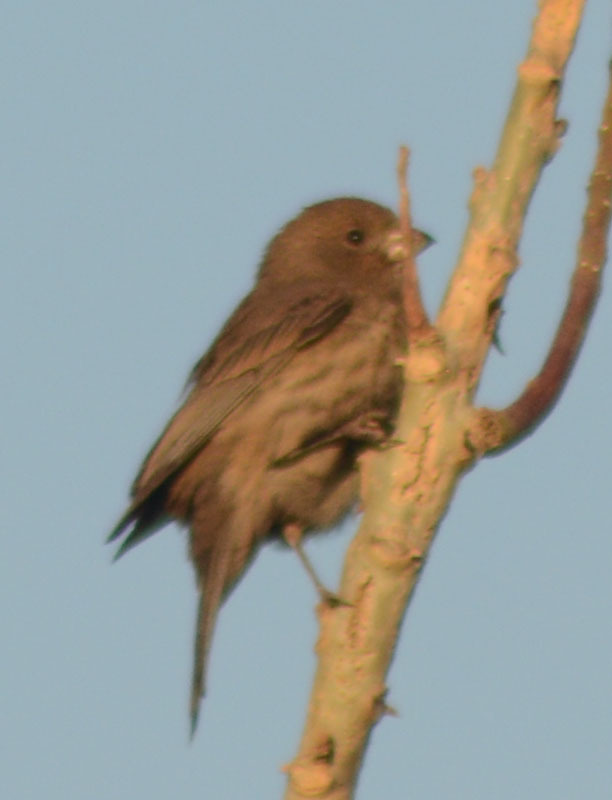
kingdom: Animalia
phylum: Chordata
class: Aves
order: Passeriformes
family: Fringillidae
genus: Haemorhous
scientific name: Haemorhous mexicanus
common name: House finch
